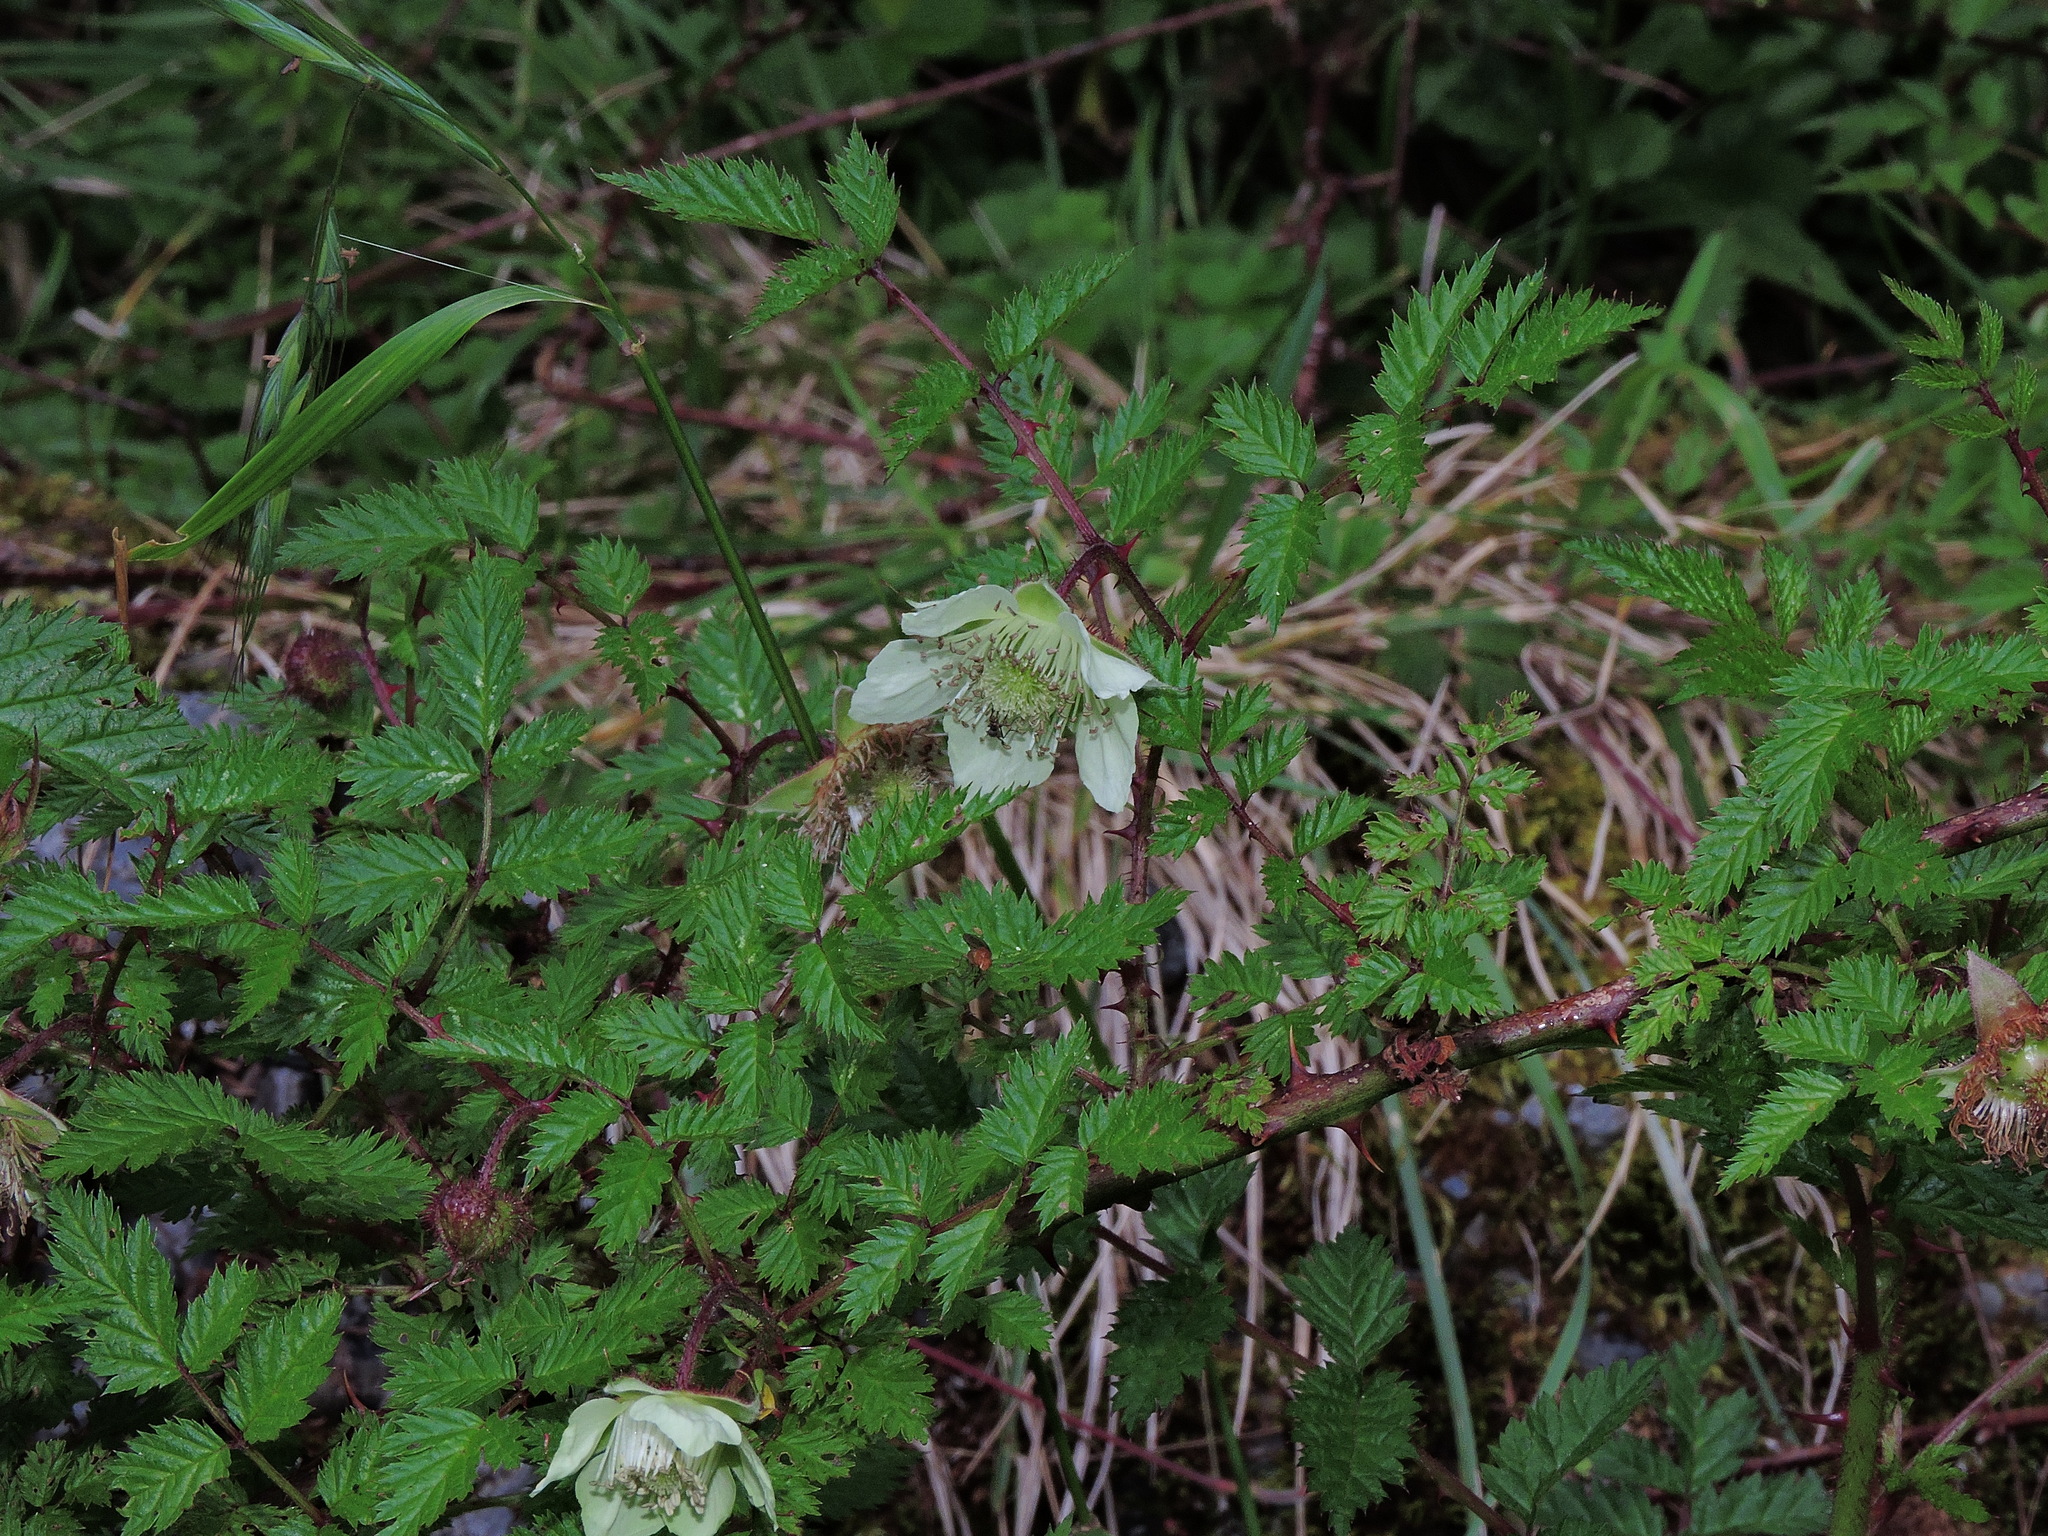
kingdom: Plantae
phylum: Tracheophyta
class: Magnoliopsida
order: Rosales
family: Rosaceae
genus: Rubus
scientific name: Rubus pungens
